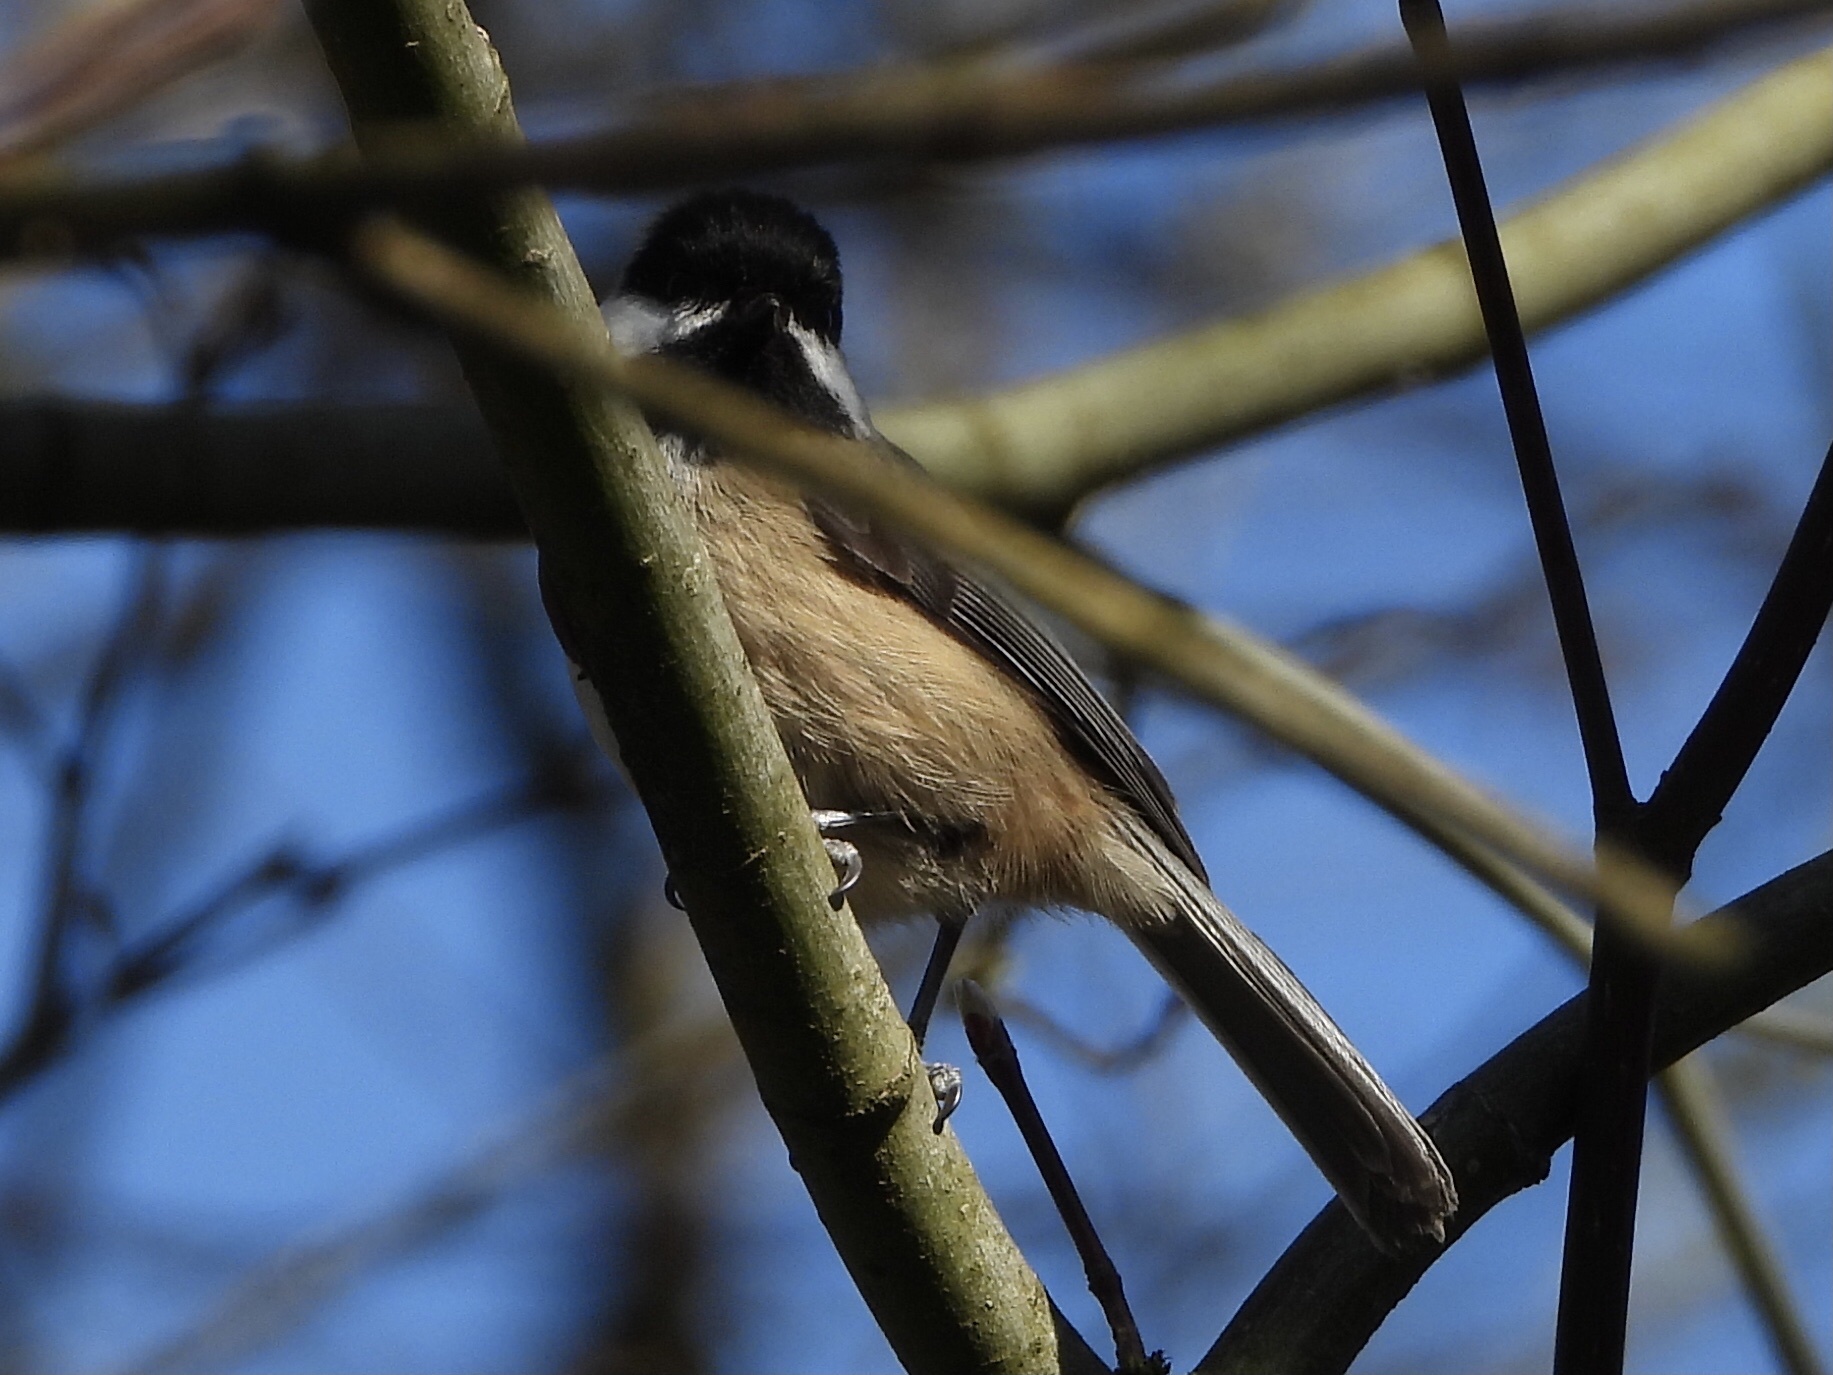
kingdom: Animalia
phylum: Chordata
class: Aves
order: Passeriformes
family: Paridae
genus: Poecile
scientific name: Poecile atricapillus
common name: Black-capped chickadee
